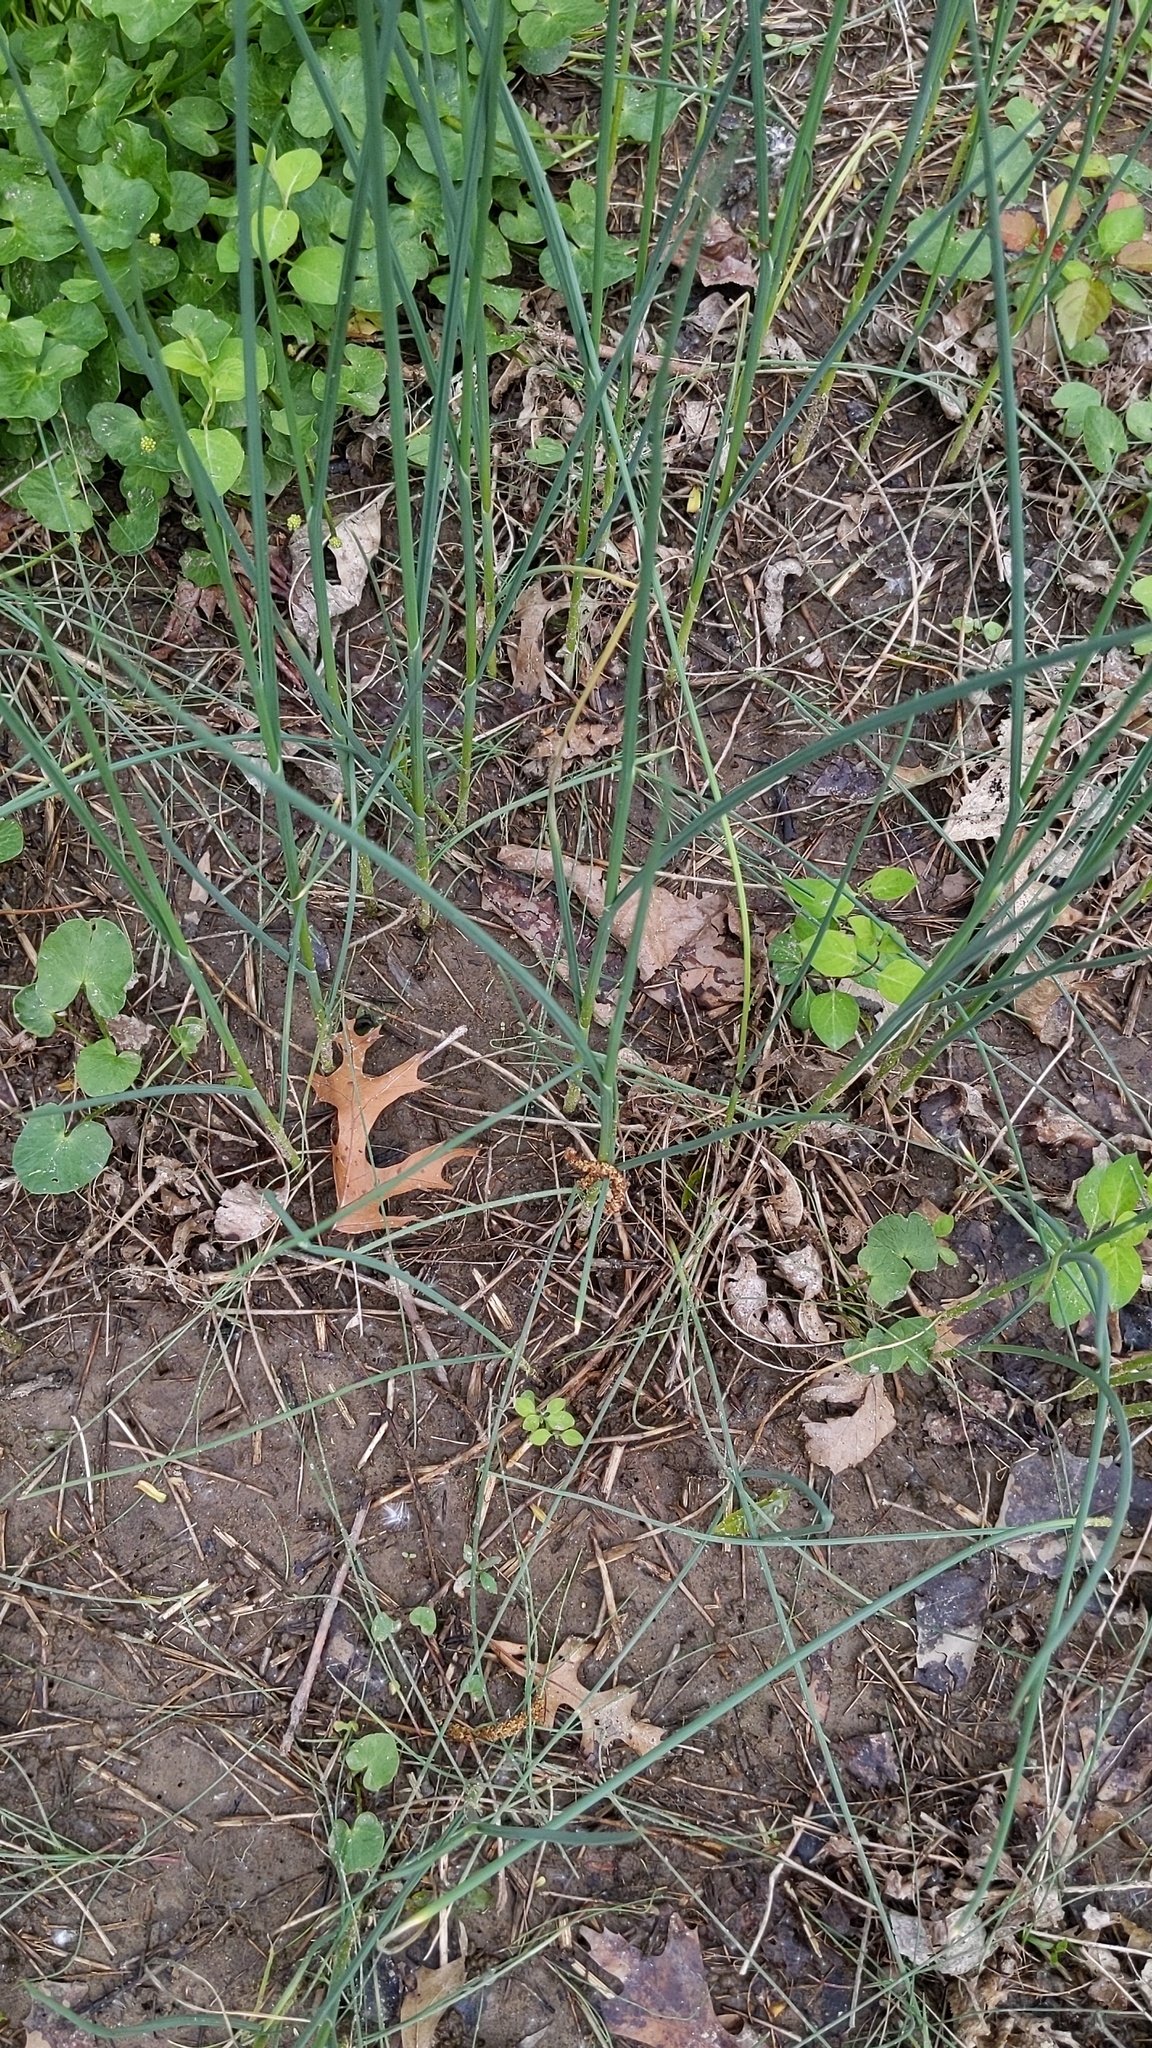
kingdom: Plantae
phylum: Tracheophyta
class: Liliopsida
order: Asparagales
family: Amaryllidaceae
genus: Allium
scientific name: Allium vineale
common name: Crow garlic
